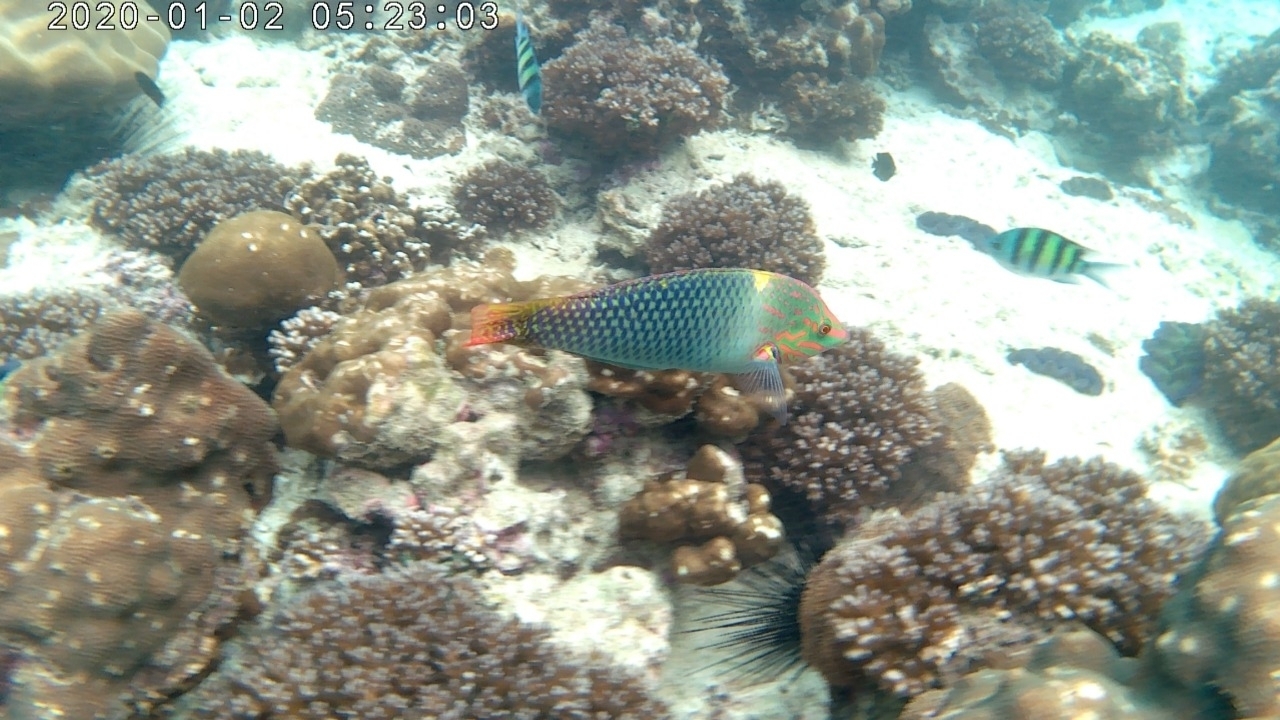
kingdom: Animalia
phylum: Chordata
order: Perciformes
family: Labridae
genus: Halichoeres
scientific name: Halichoeres hortulanus
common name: Checkerboard wrasse
